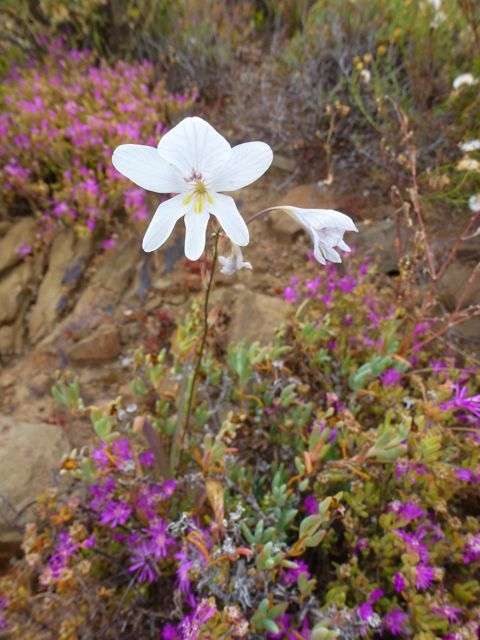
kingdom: Plantae
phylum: Tracheophyta
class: Liliopsida
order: Asparagales
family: Iridaceae
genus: Tritonia
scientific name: Tritonia pallida
